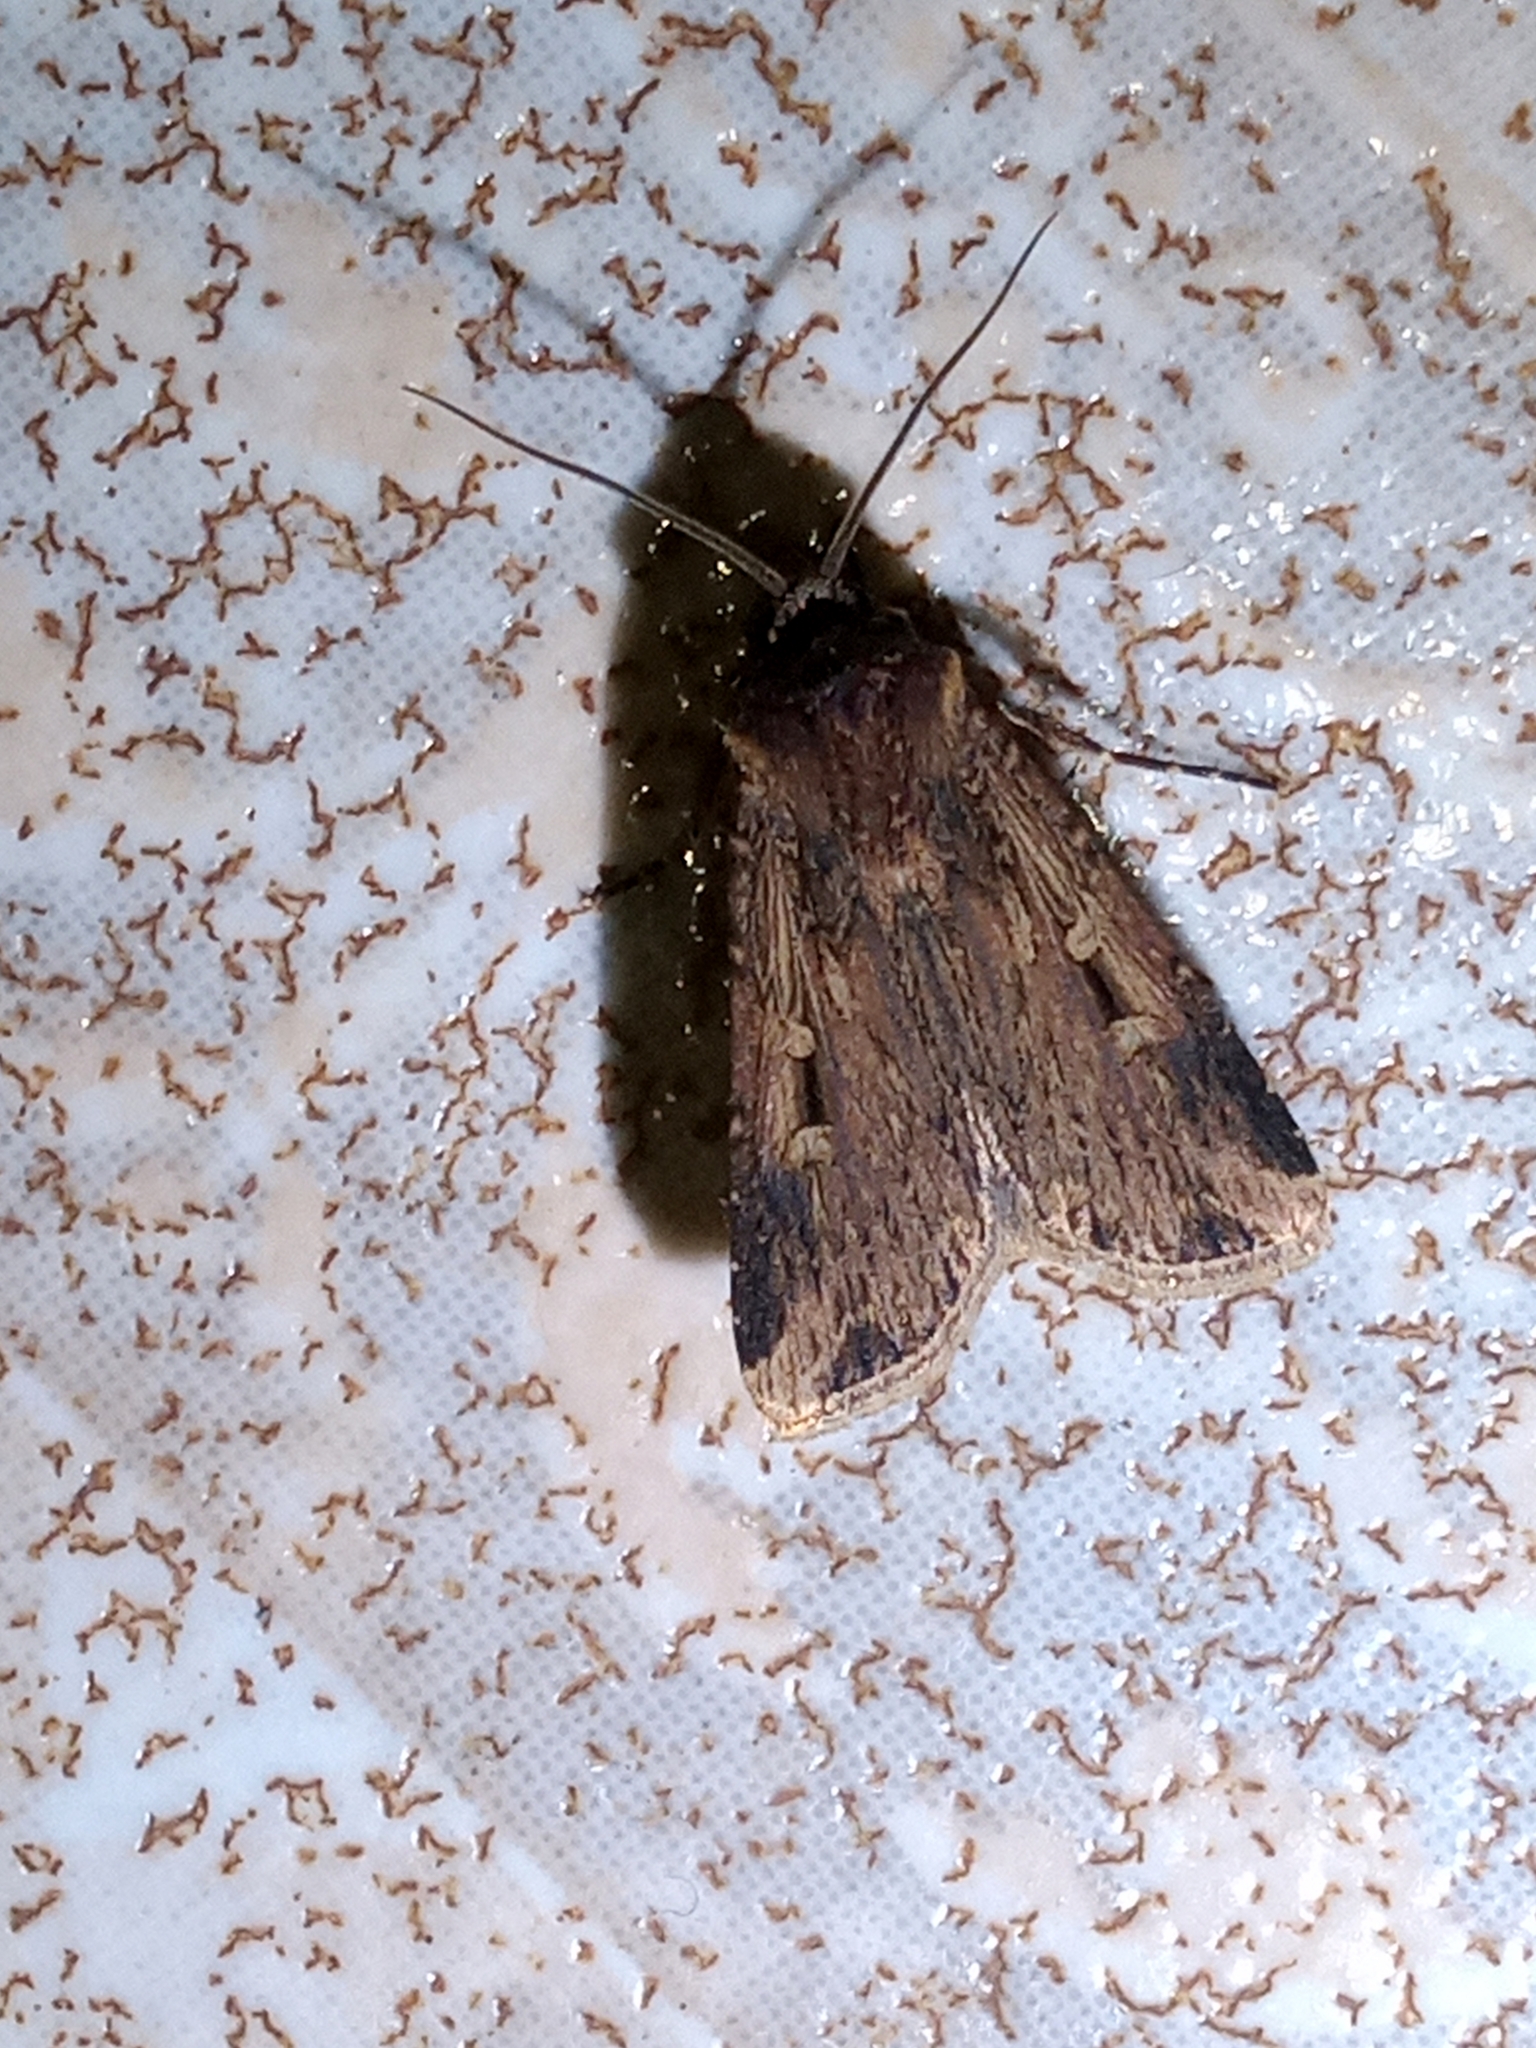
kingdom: Animalia
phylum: Arthropoda
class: Insecta
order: Lepidoptera
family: Noctuidae
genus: Feltia
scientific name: Feltia subterranea
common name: Granulate cutworm
